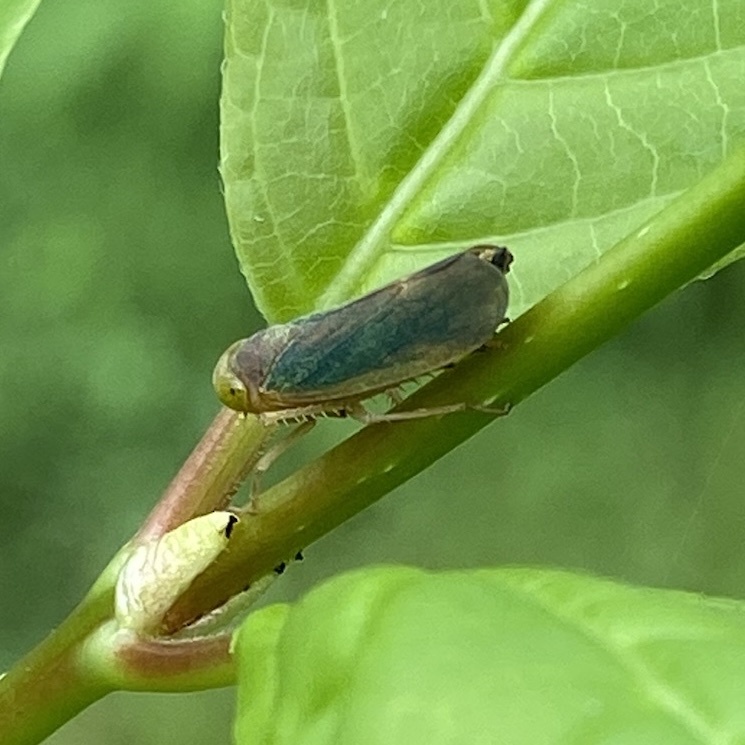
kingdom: Animalia
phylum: Arthropoda
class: Insecta
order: Hemiptera
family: Cicadellidae
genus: Jikradia
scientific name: Jikradia melanotus
